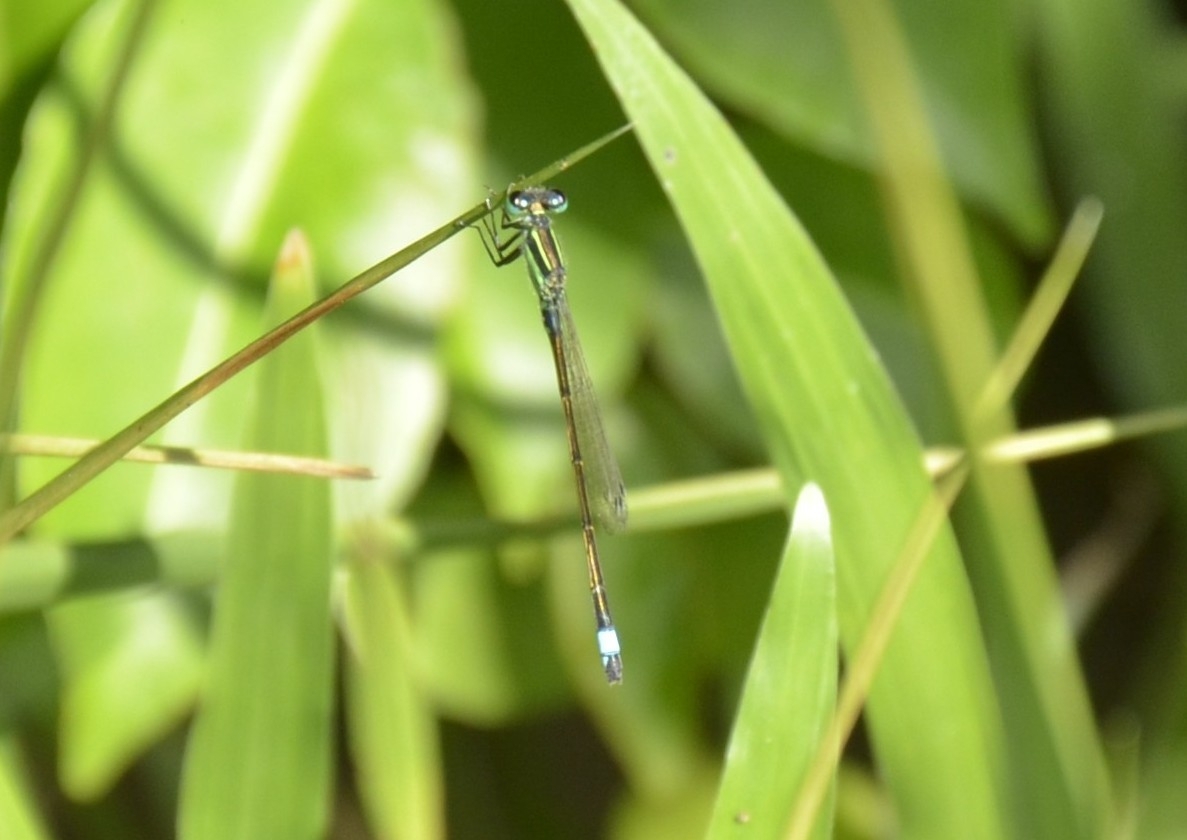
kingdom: Animalia
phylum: Arthropoda
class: Insecta
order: Odonata
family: Coenagrionidae
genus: Ischnura
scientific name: Ischnura senegalensis
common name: Tropical bluetail
